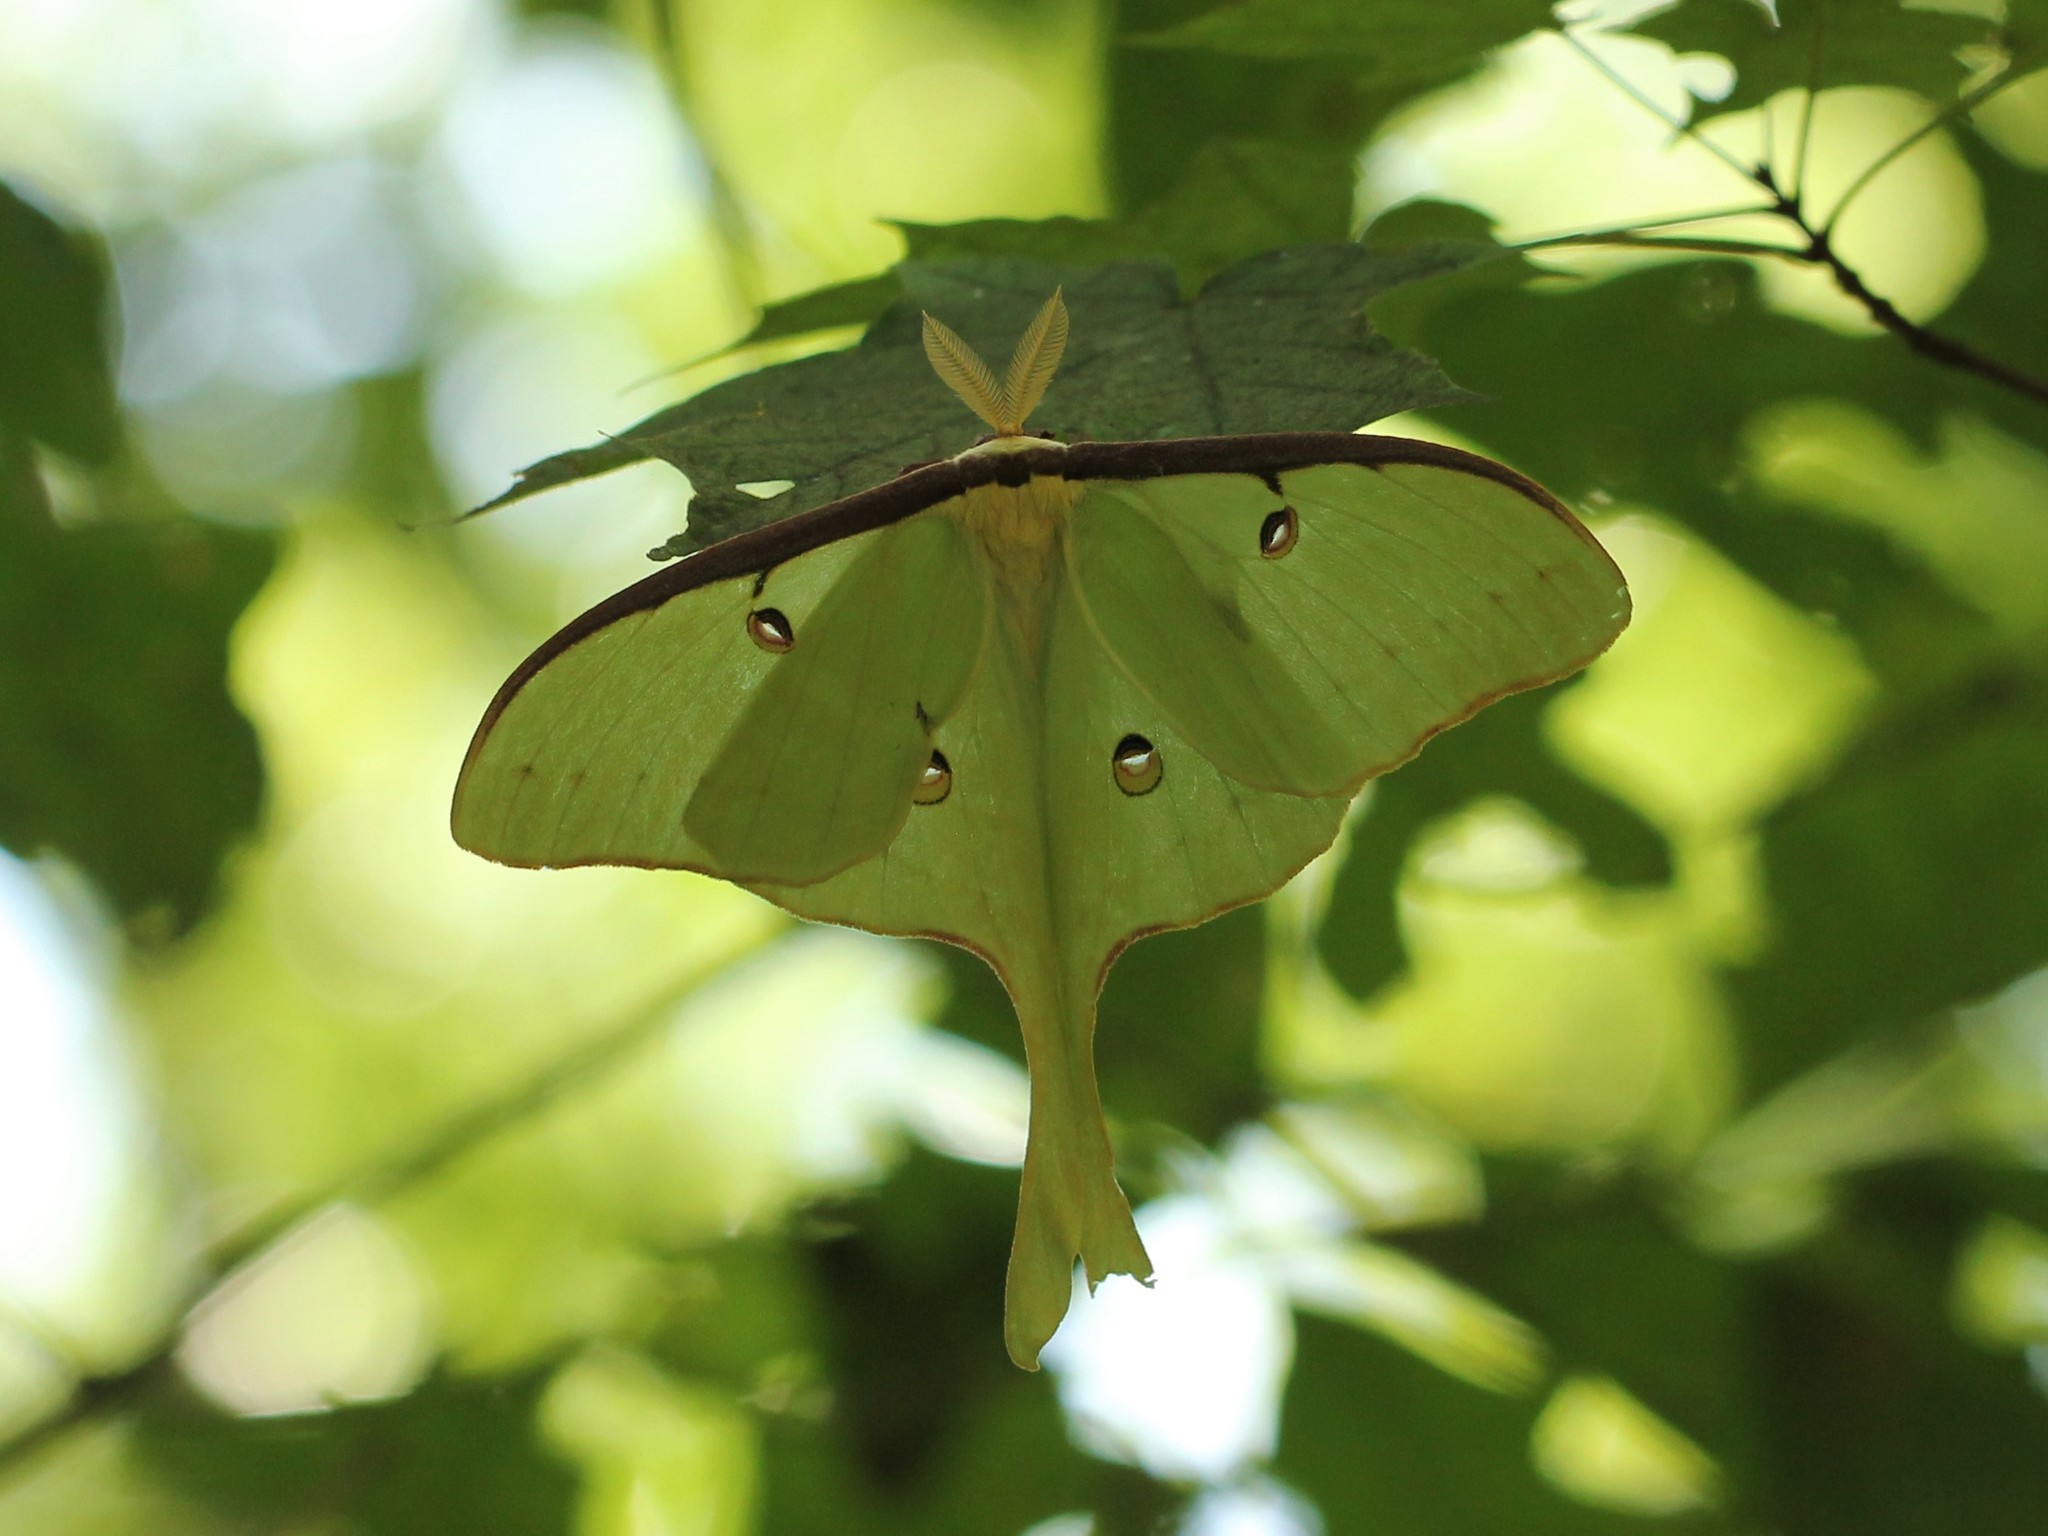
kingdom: Animalia
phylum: Arthropoda
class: Insecta
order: Lepidoptera
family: Saturniidae
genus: Actias
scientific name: Actias luna
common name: Luna moth
